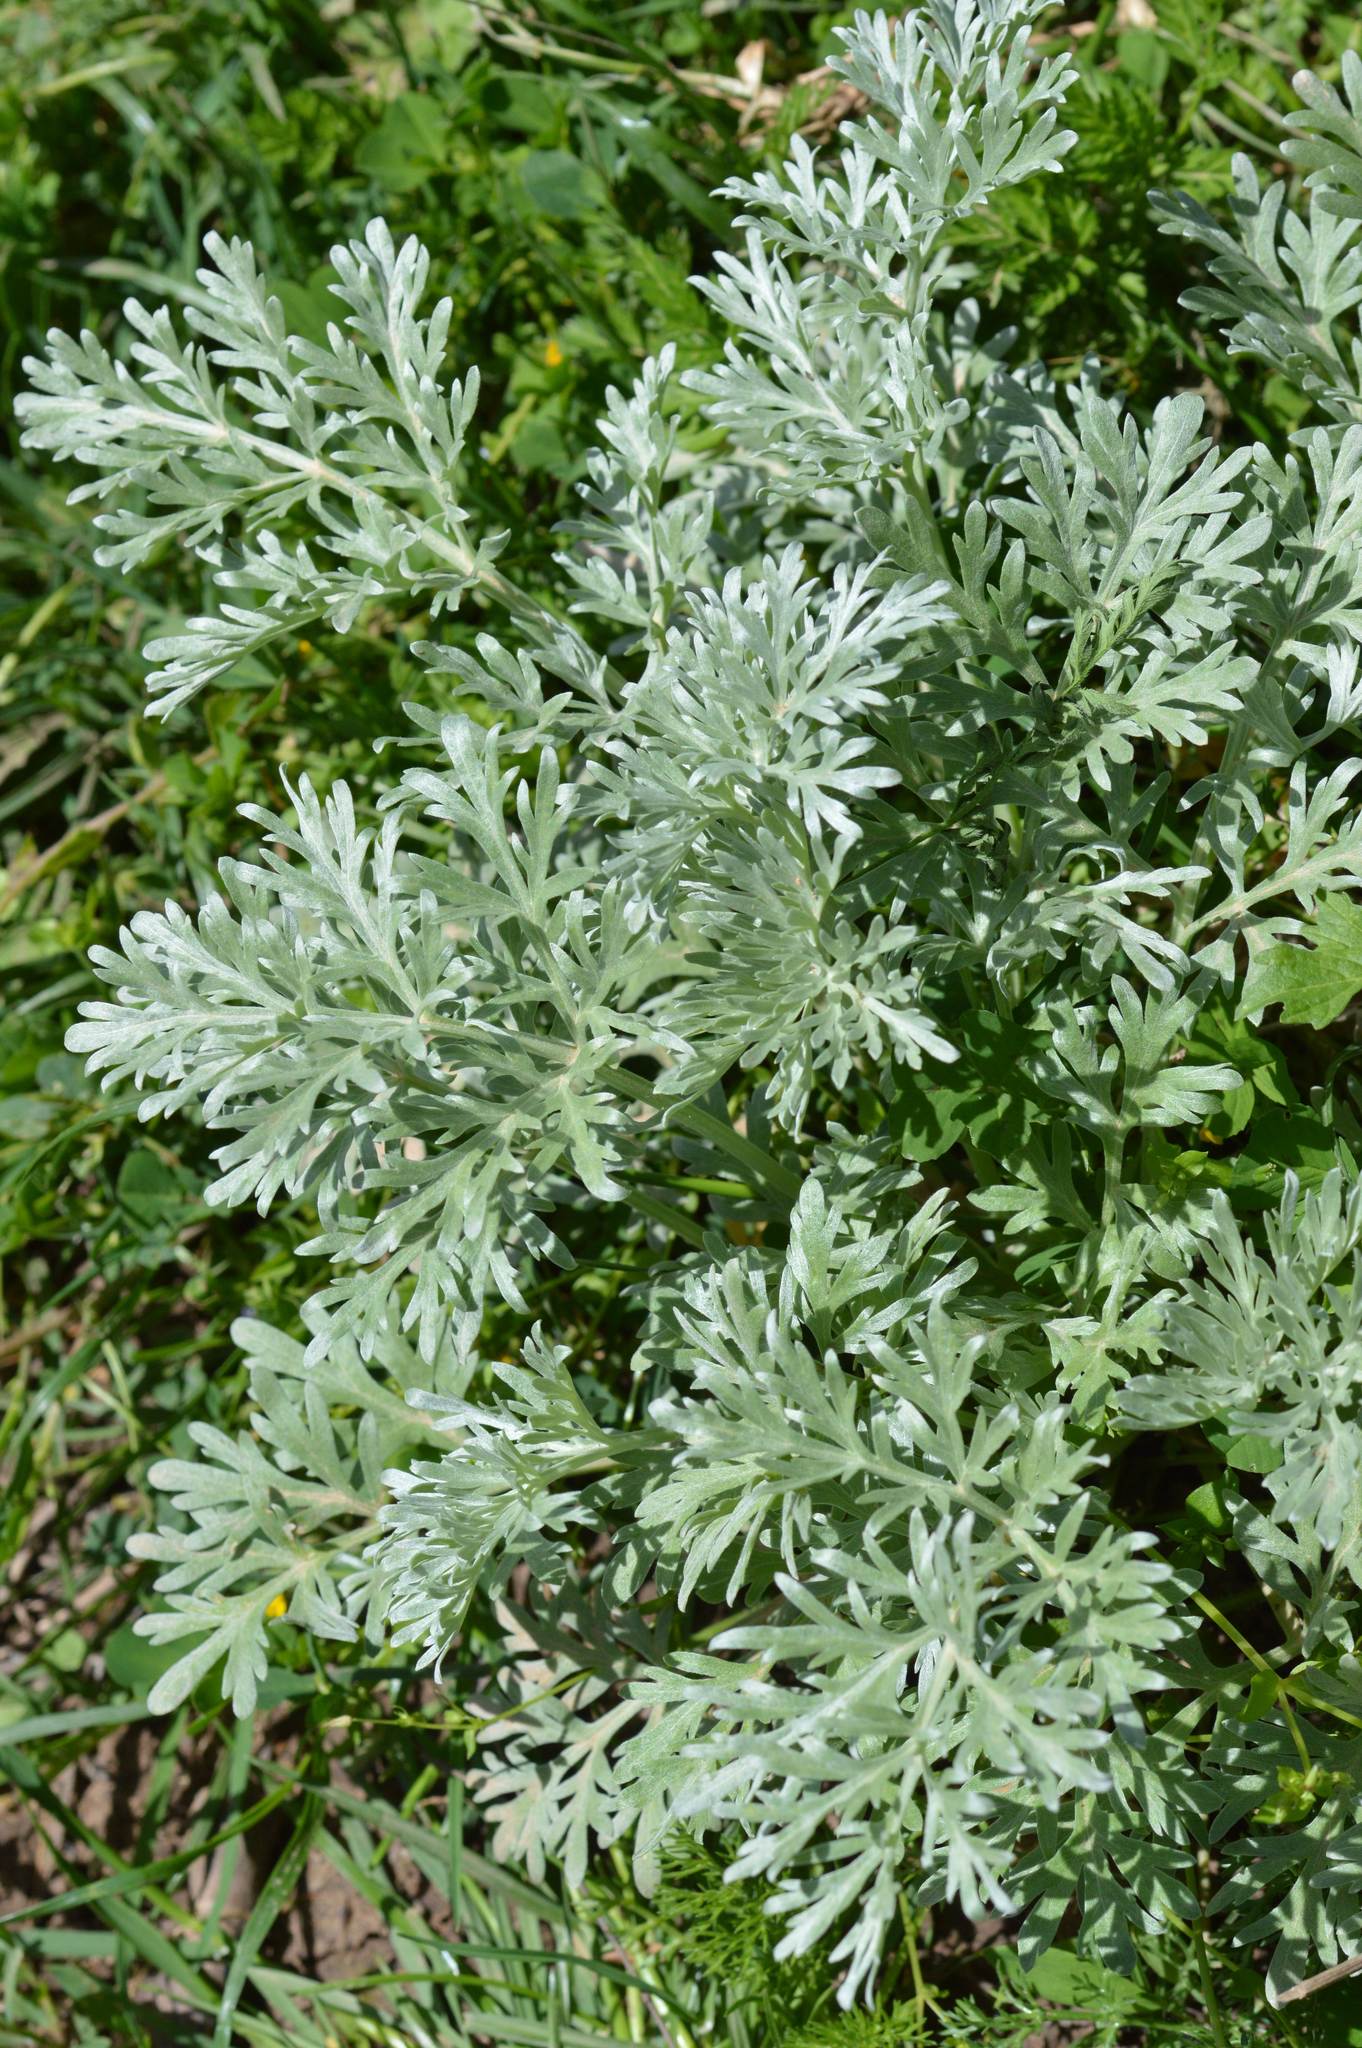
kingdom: Plantae
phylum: Tracheophyta
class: Magnoliopsida
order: Asterales
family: Asteraceae
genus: Artemisia
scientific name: Artemisia absinthium
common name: Wormwood
